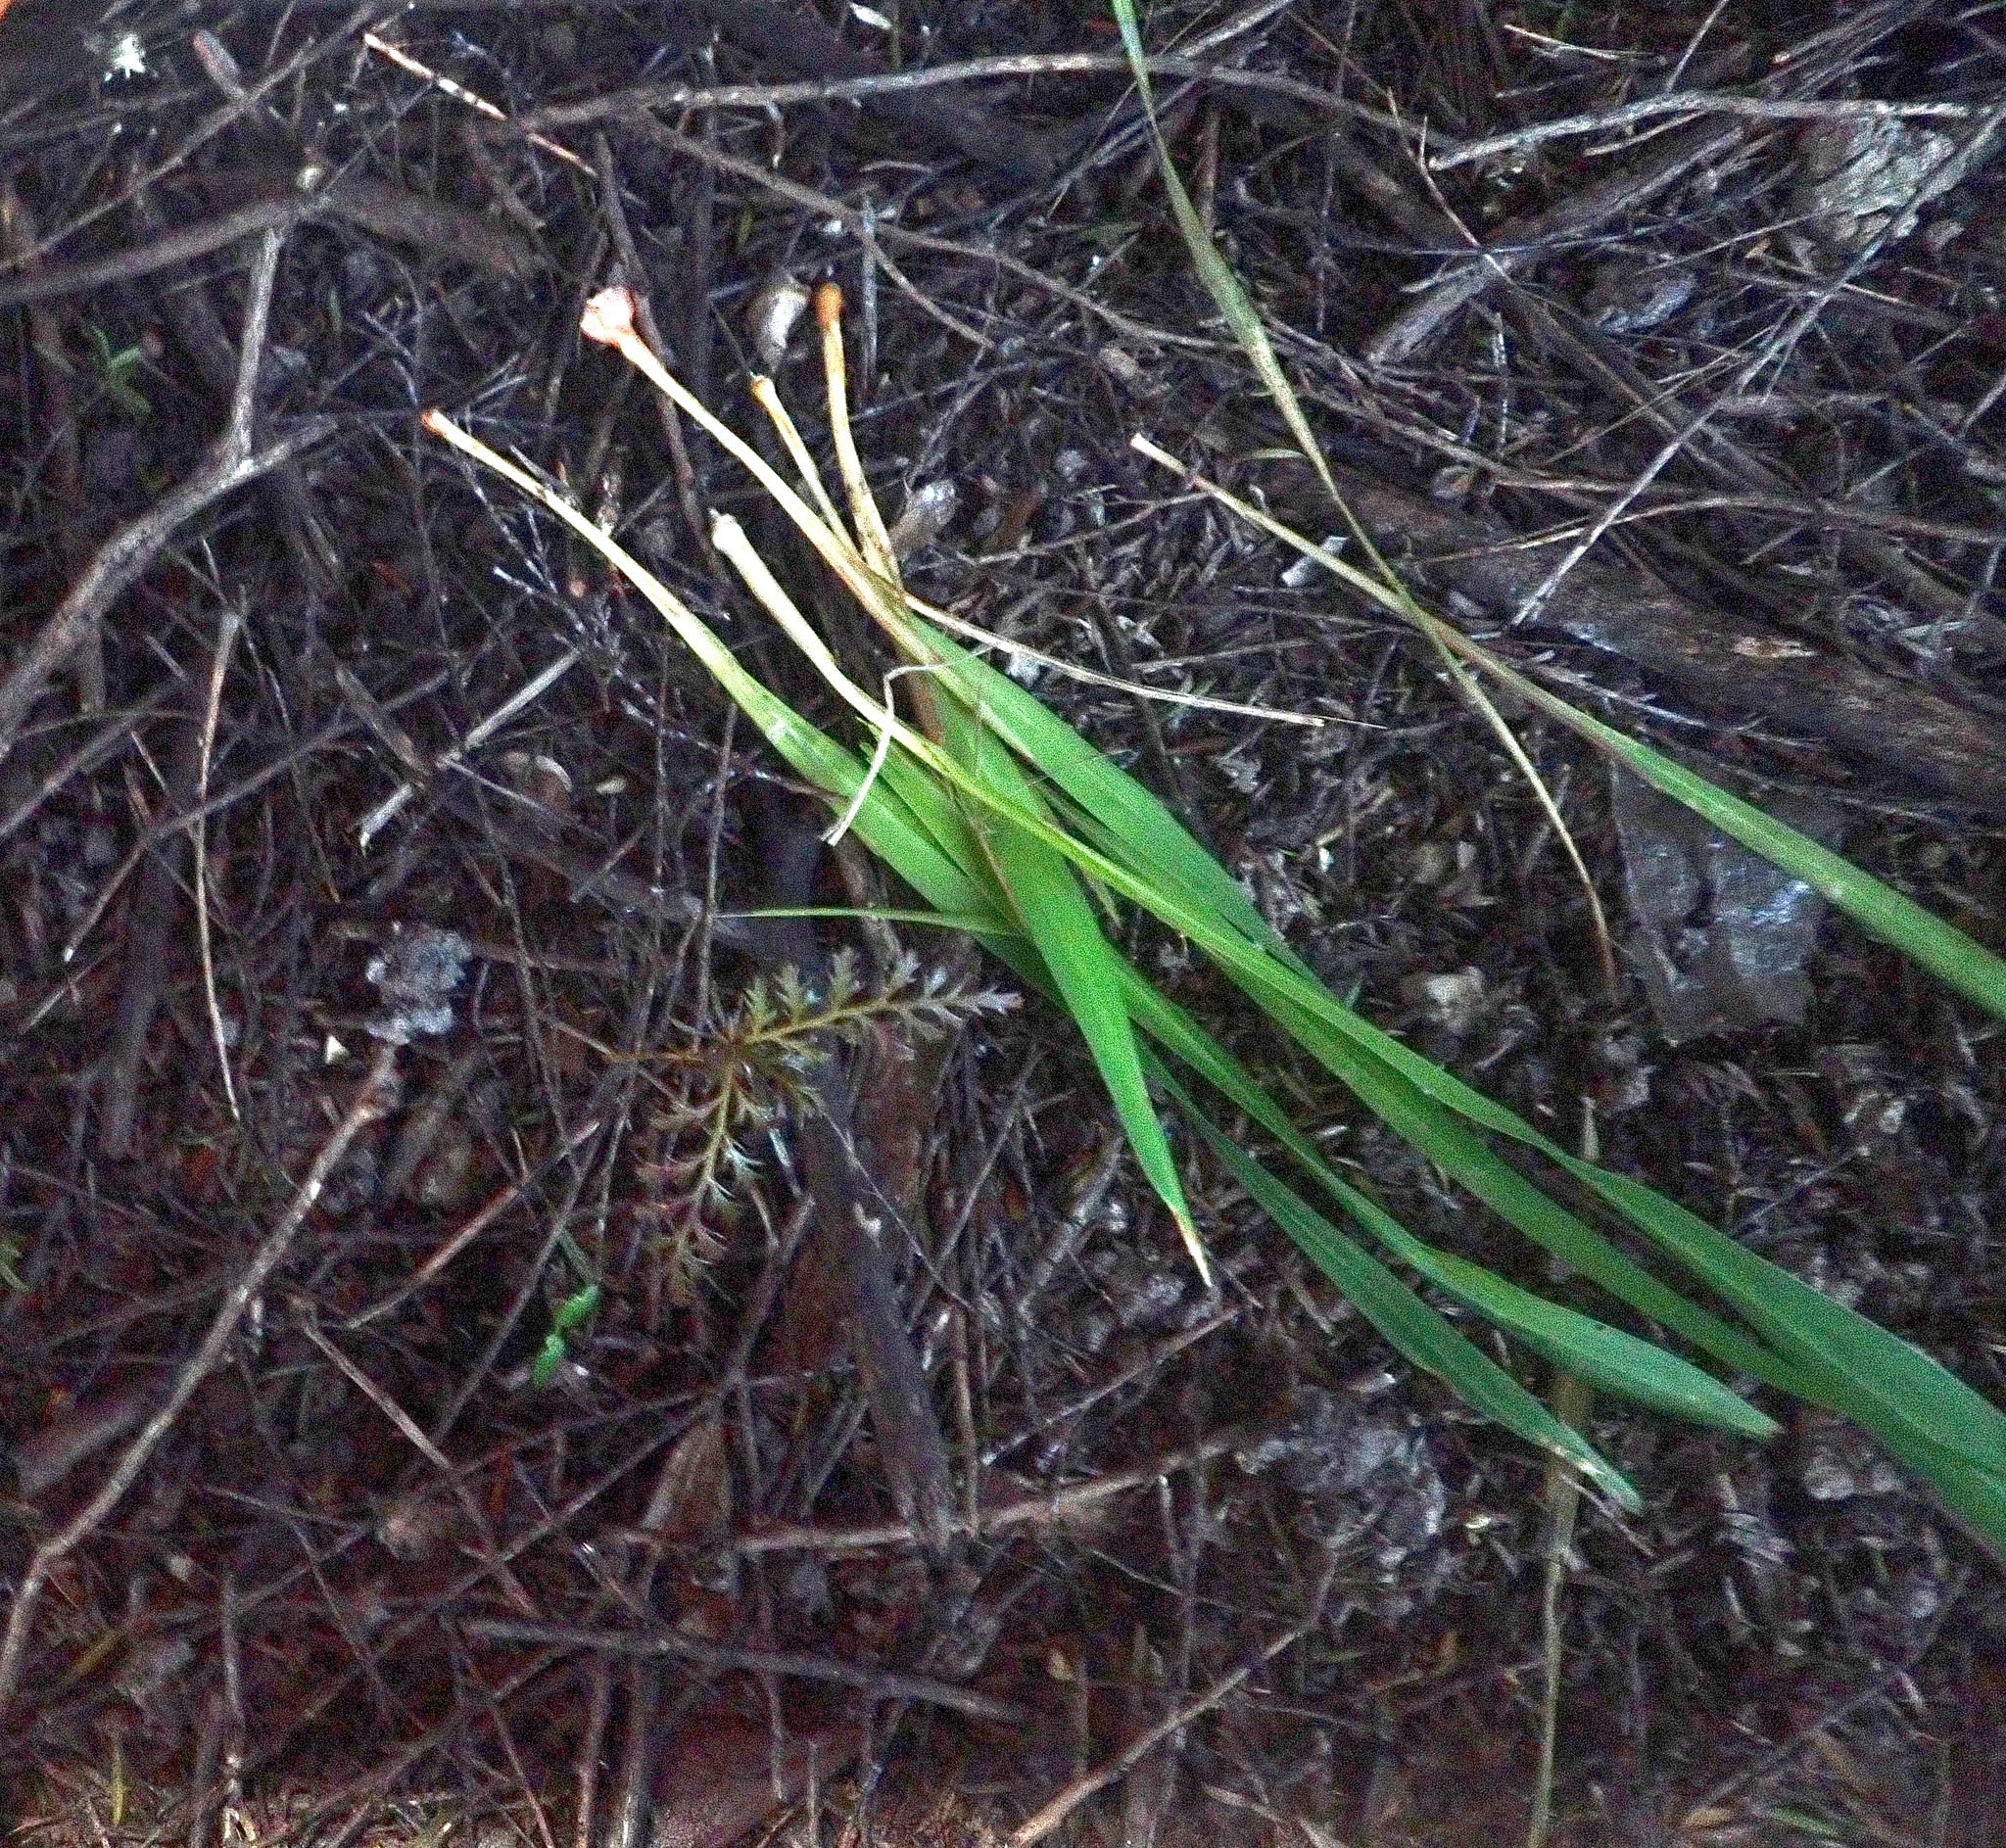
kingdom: Plantae
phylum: Tracheophyta
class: Pinopsida
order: Pinales
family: Phyllocladaceae
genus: Phyllocladus
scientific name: Phyllocladus trichomanoides
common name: Celery pine
